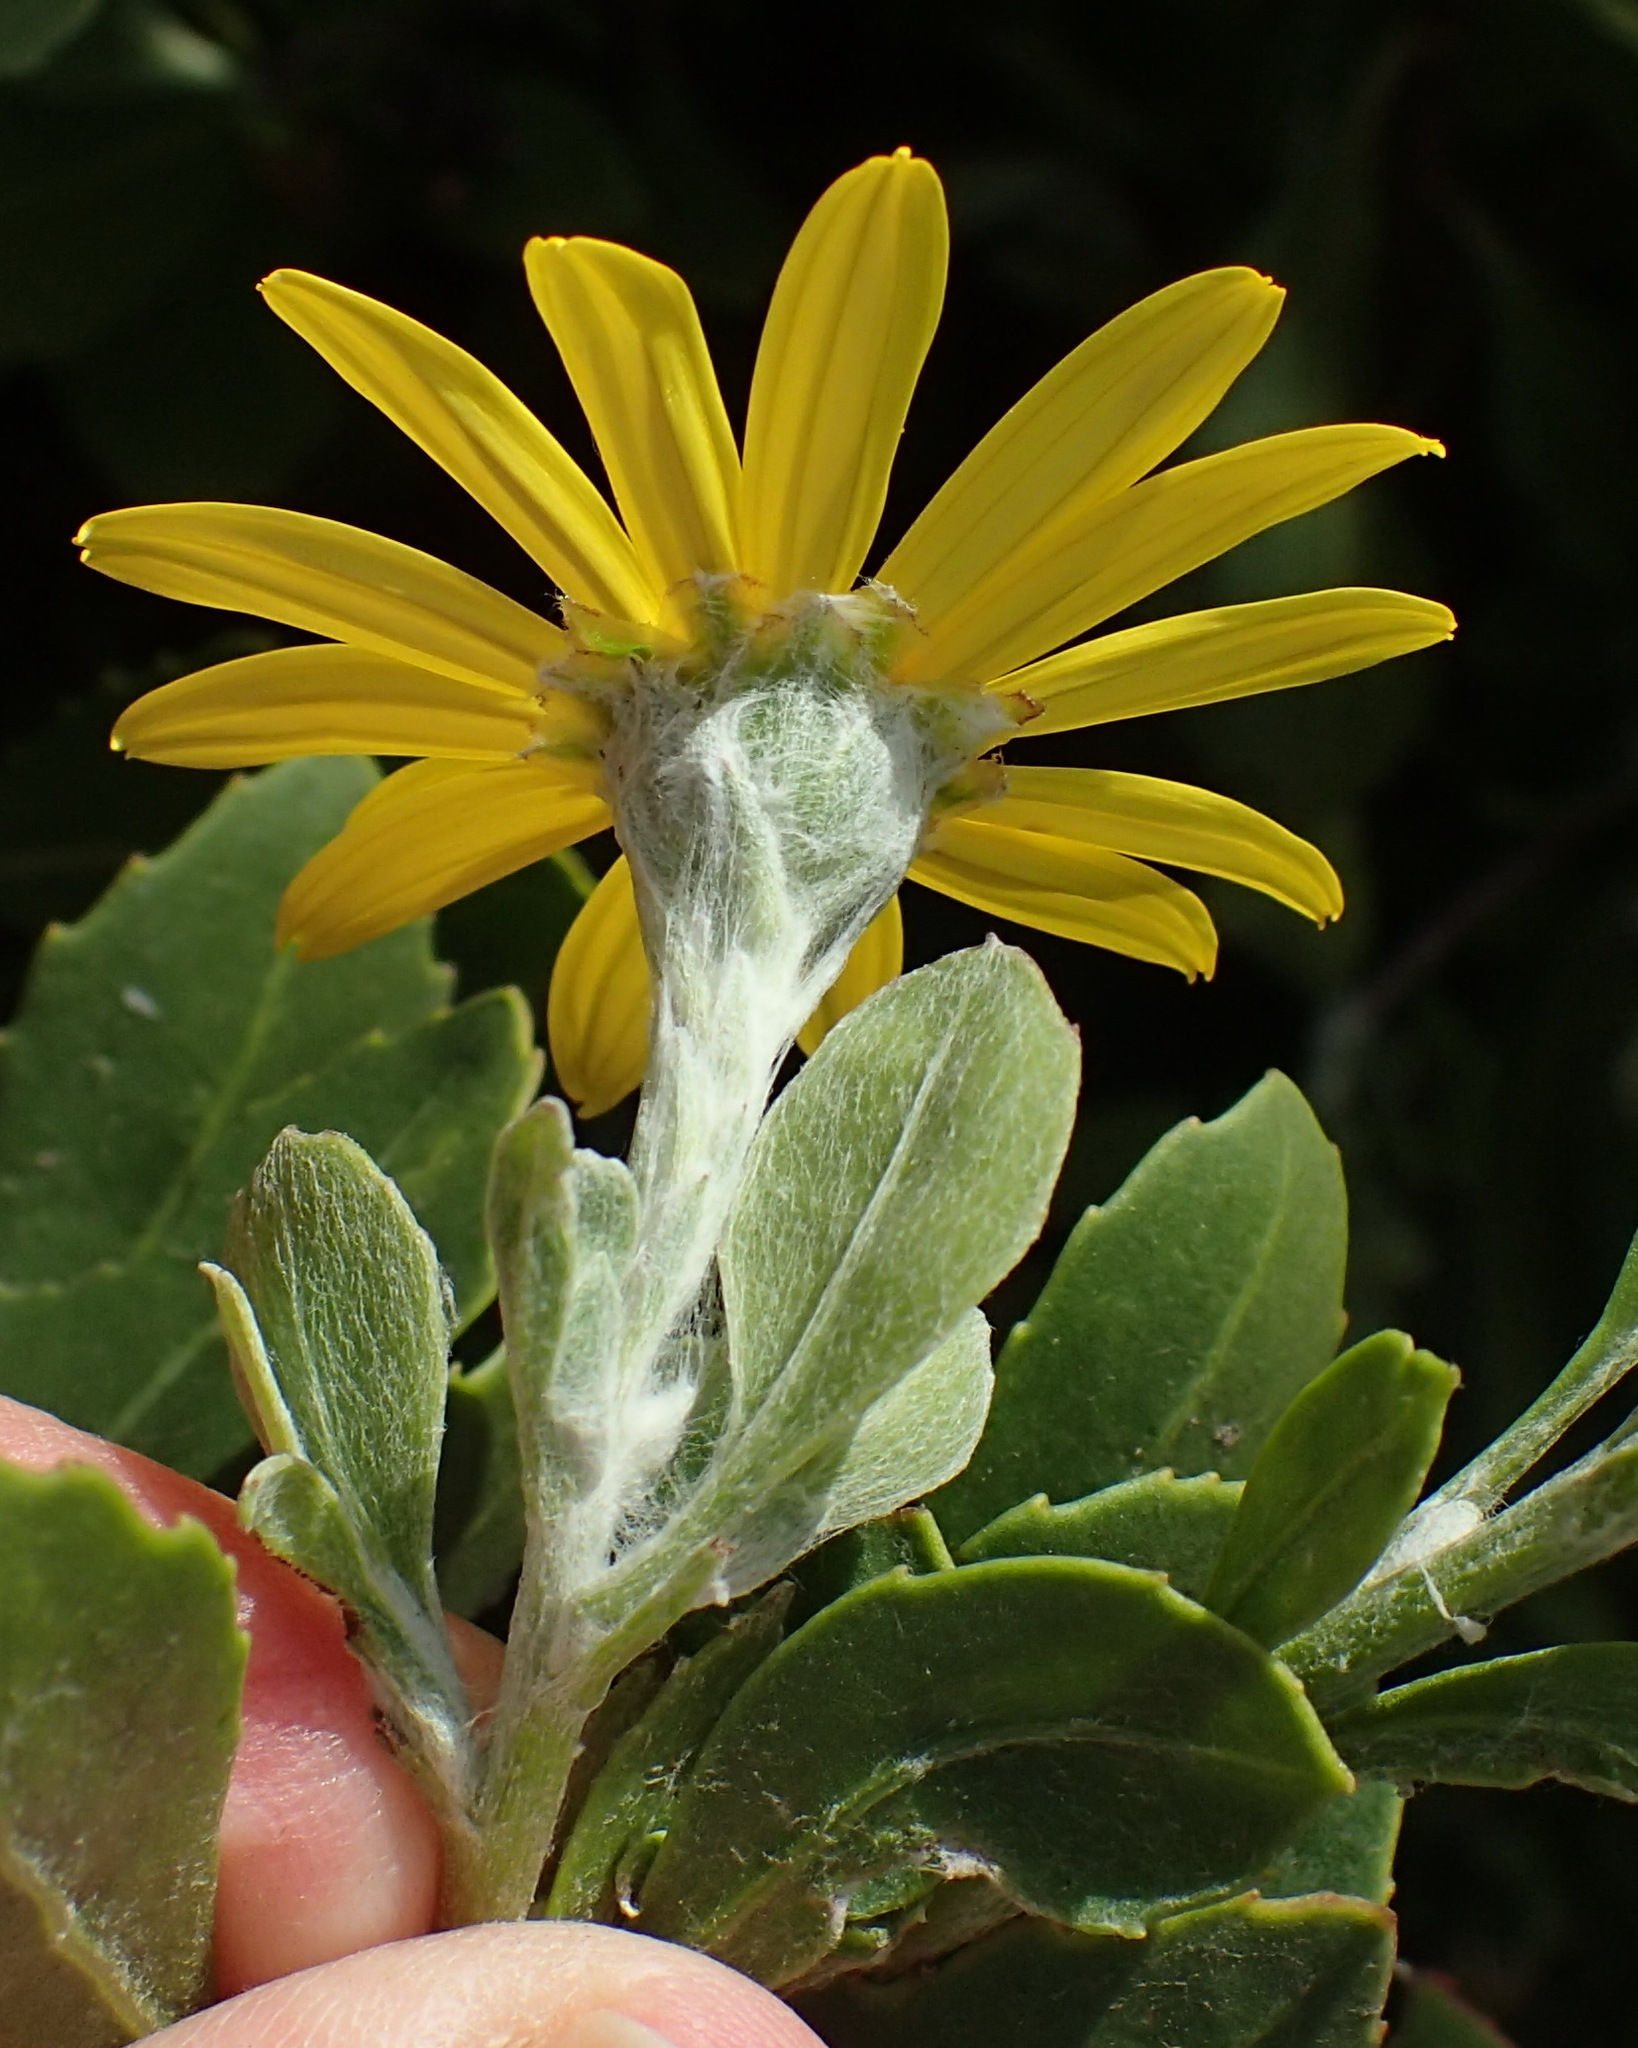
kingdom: Plantae
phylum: Tracheophyta
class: Magnoliopsida
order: Asterales
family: Asteraceae
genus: Osteospermum
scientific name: Osteospermum moniliferum
